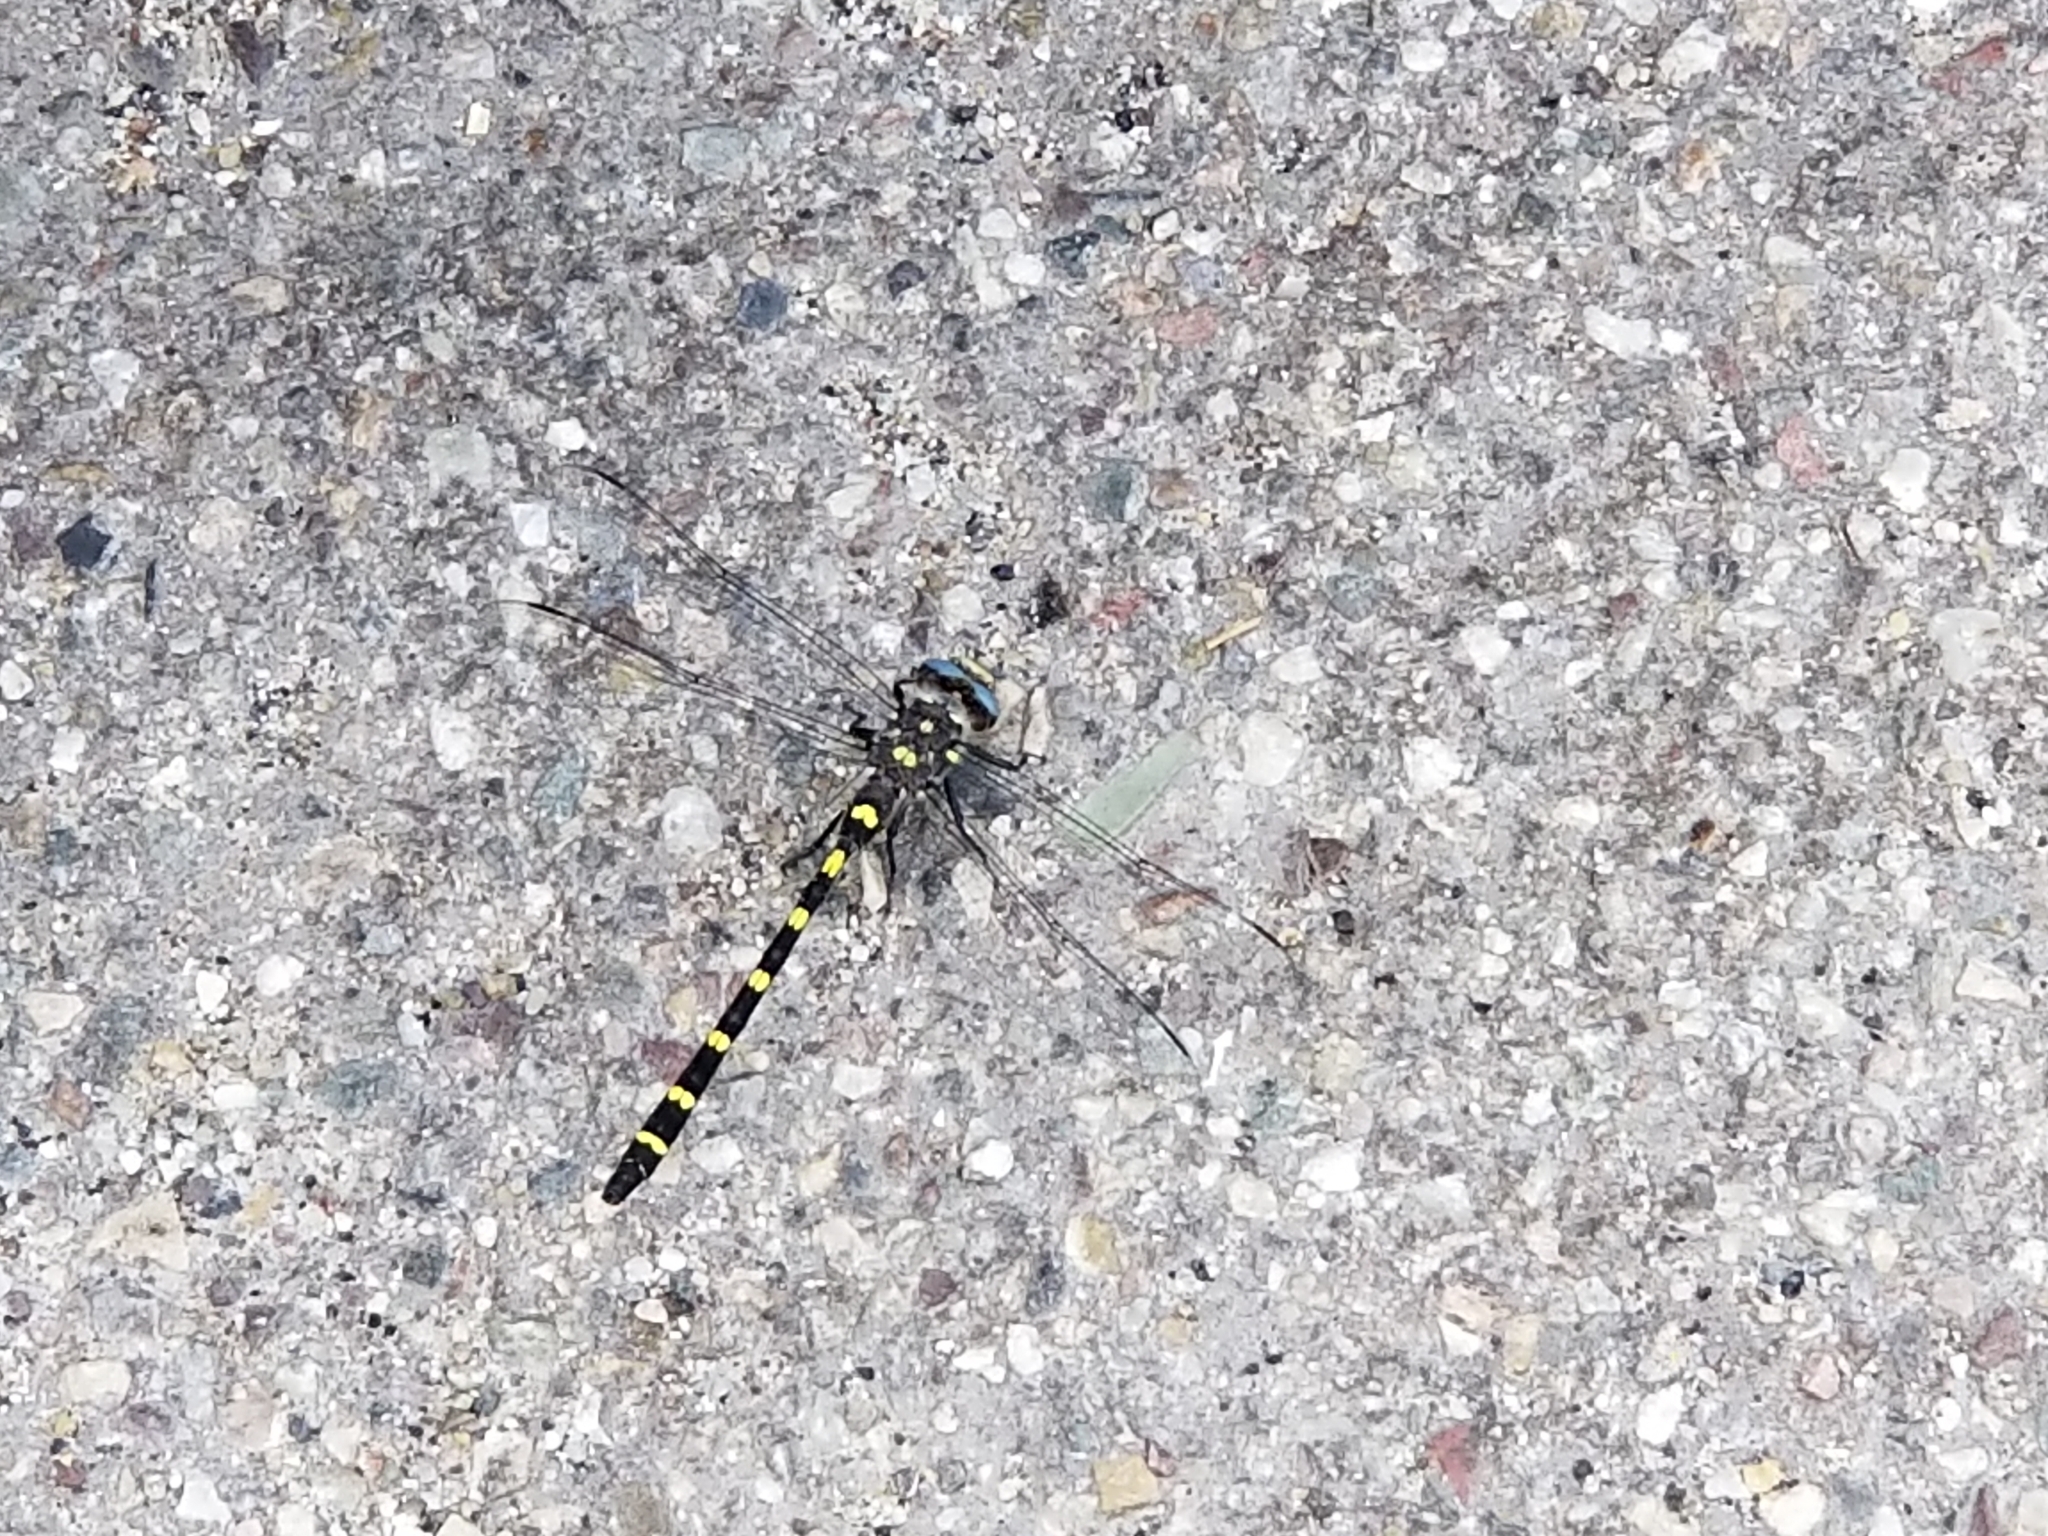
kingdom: Animalia
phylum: Arthropoda
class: Insecta
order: Odonata
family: Cordulegastridae
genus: Cordulegaster
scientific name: Cordulegaster dorsalis
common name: Pacific spiketail
